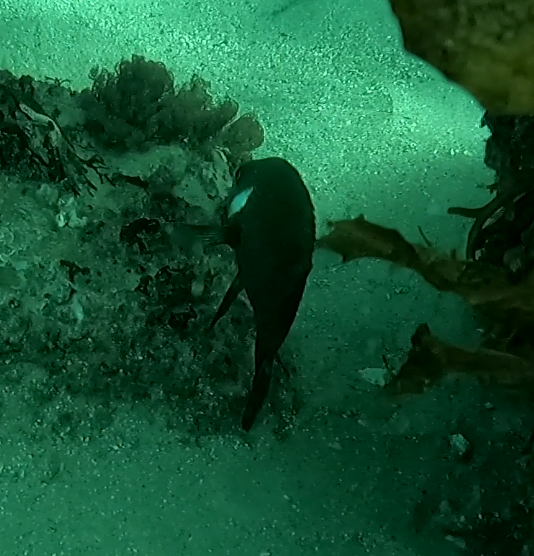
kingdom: Animalia
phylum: Chordata
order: Perciformes
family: Pomacentridae
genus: Parma
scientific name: Parma microlepis
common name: White-ear
